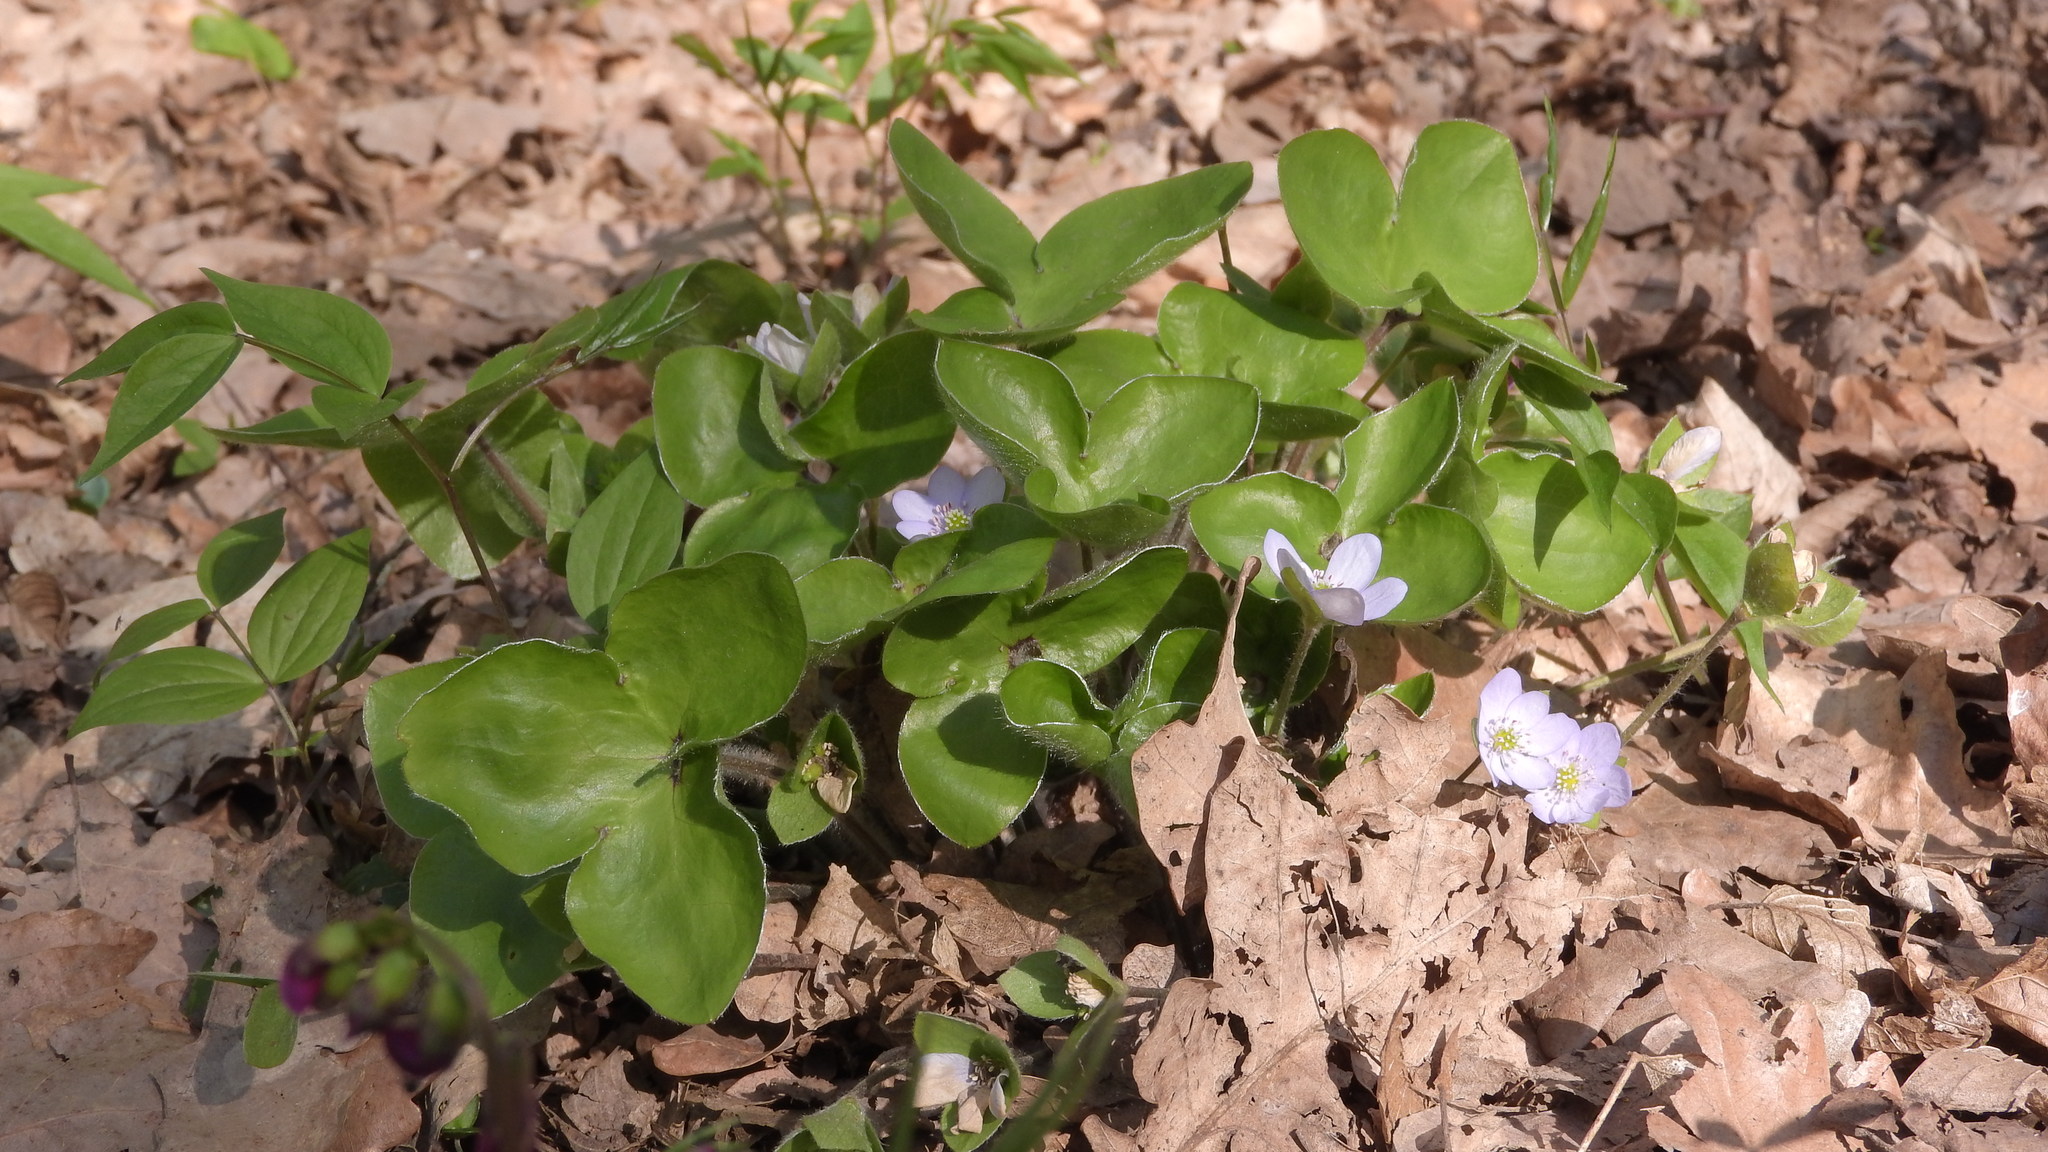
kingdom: Plantae
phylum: Tracheophyta
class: Magnoliopsida
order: Ranunculales
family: Ranunculaceae
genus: Hepatica
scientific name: Hepatica nobilis
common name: Liverleaf
